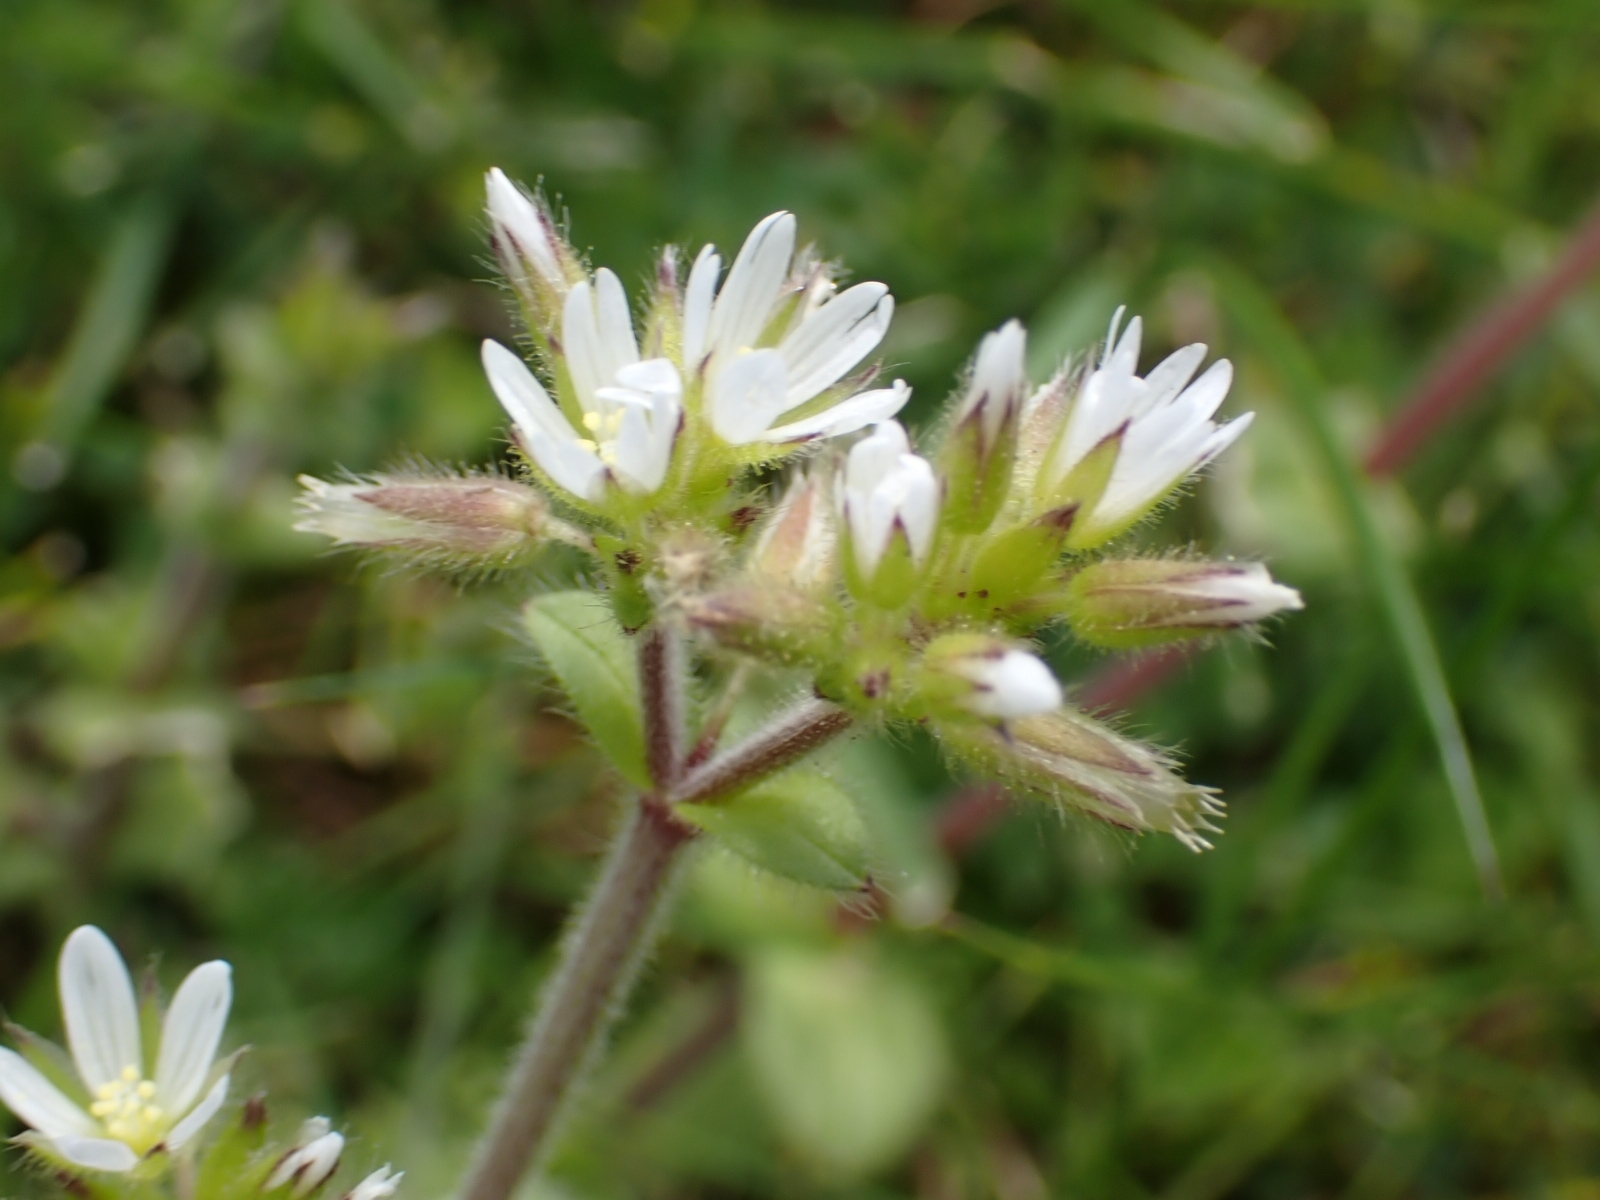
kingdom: Plantae
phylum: Tracheophyta
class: Magnoliopsida
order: Caryophyllales
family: Caryophyllaceae
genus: Cerastium
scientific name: Cerastium glomeratum
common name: Sticky chickweed
